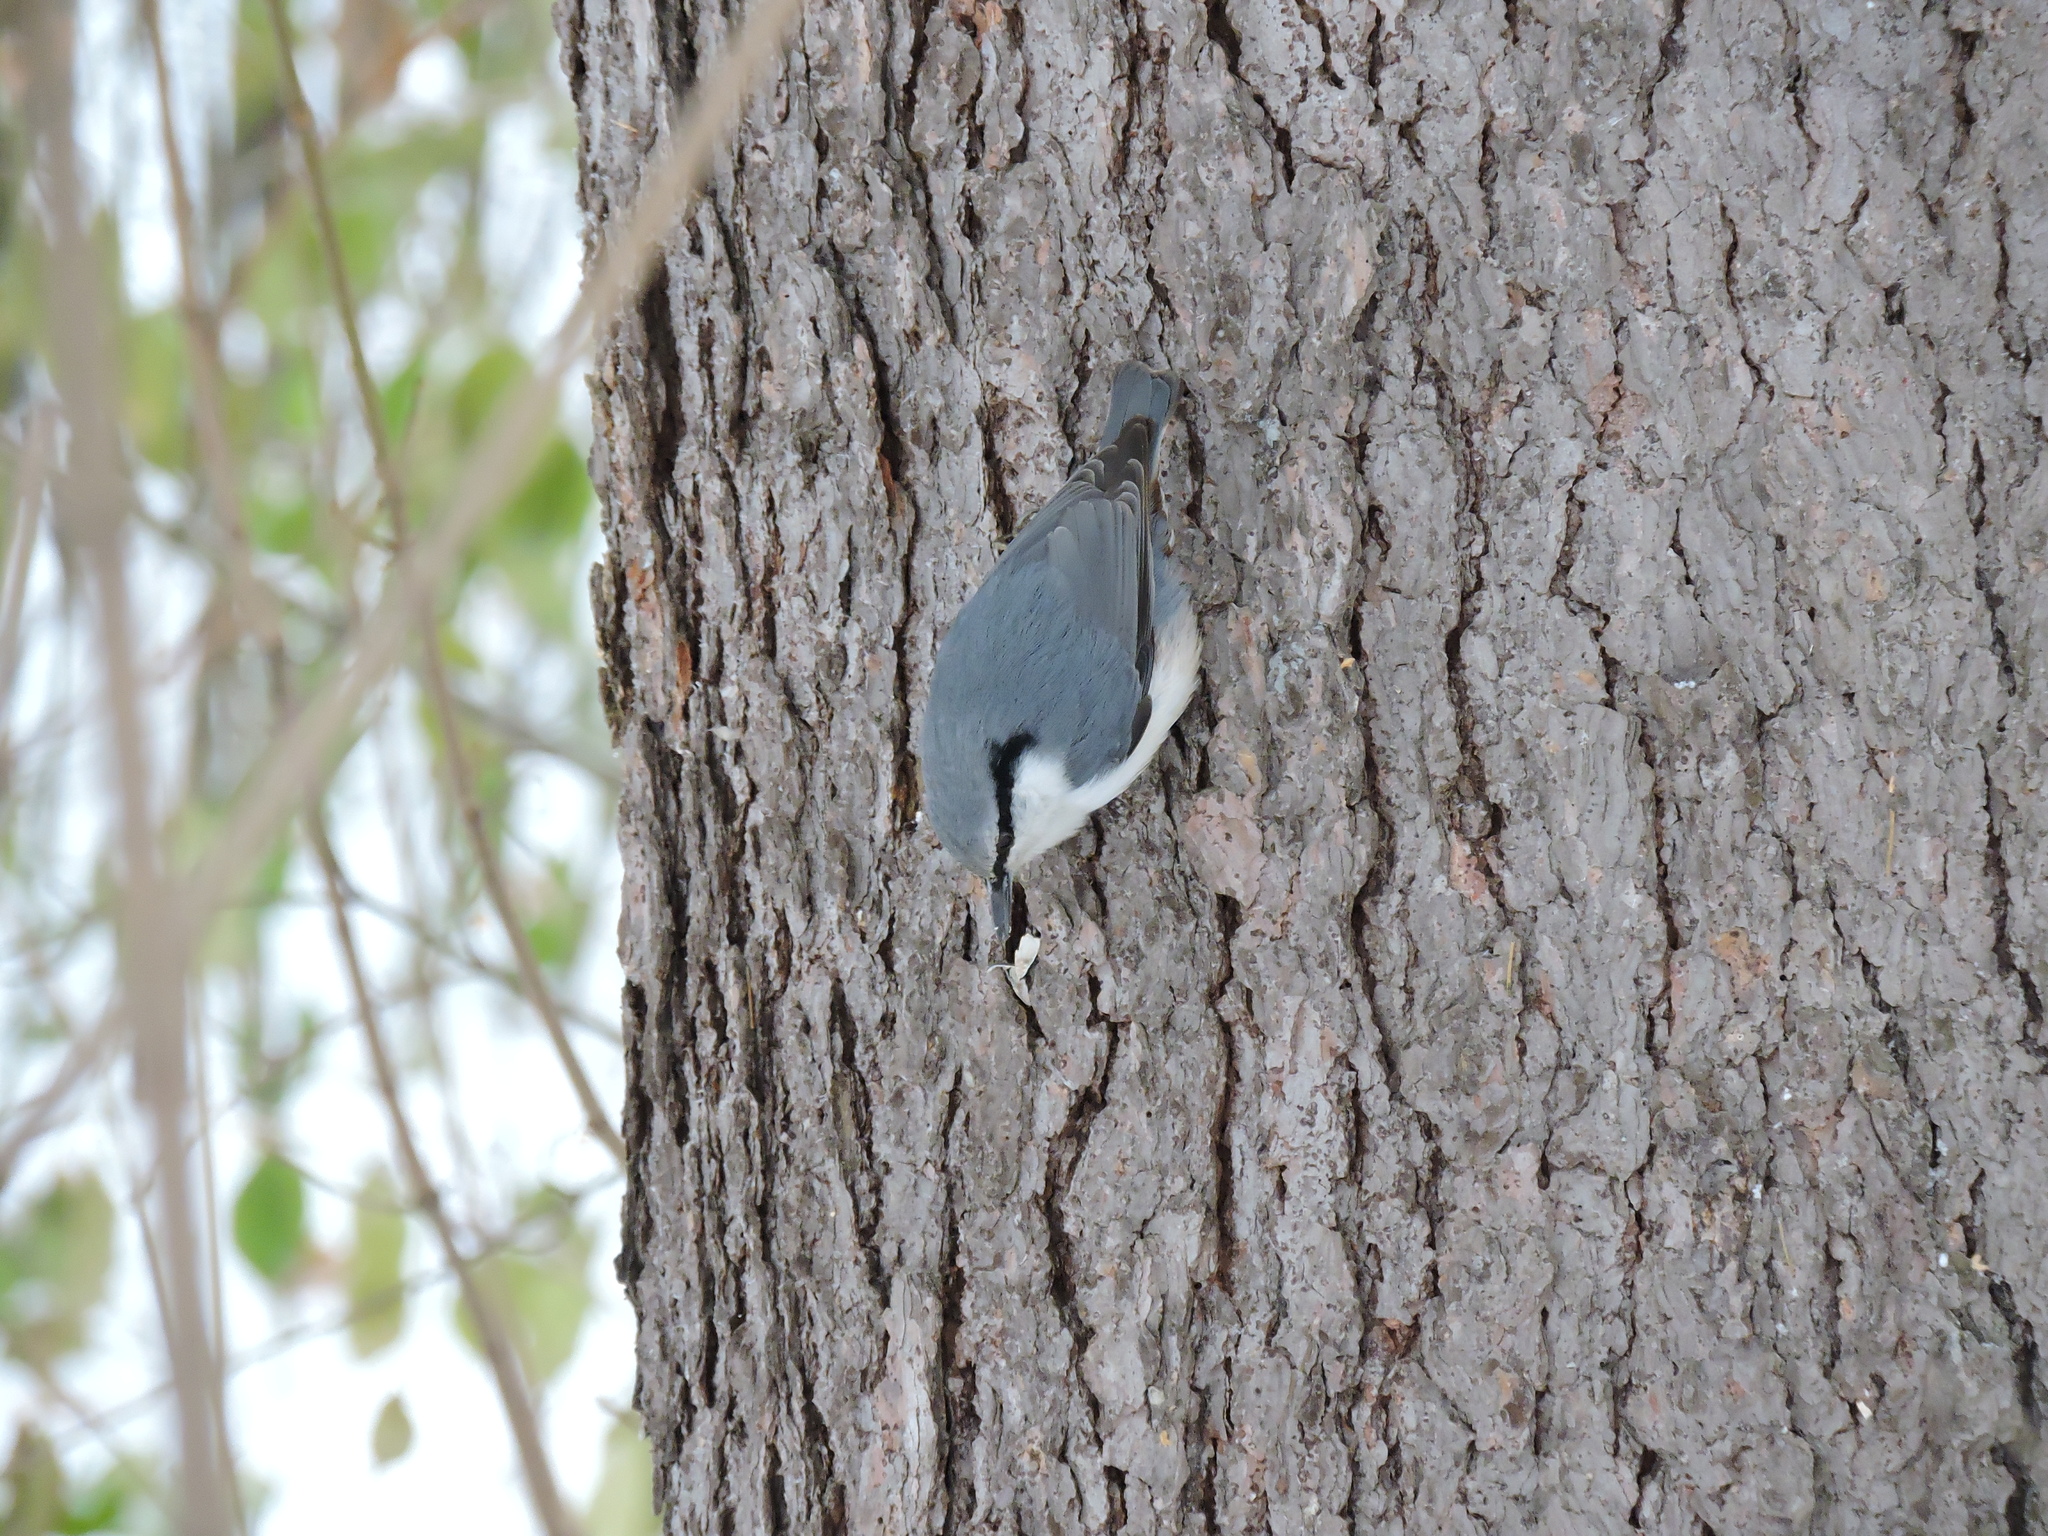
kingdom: Animalia
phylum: Chordata
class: Aves
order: Passeriformes
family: Sittidae
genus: Sitta
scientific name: Sitta europaea
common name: Eurasian nuthatch
